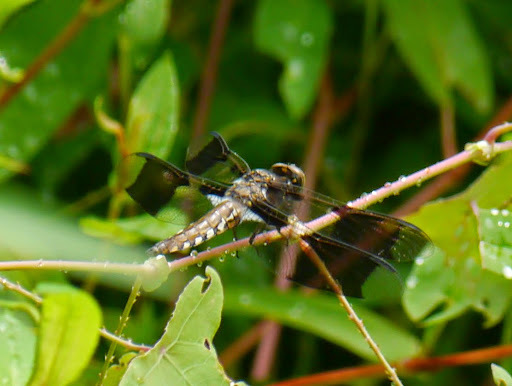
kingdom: Animalia
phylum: Arthropoda
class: Insecta
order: Odonata
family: Libellulidae
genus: Plathemis
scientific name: Plathemis lydia
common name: Common whitetail
